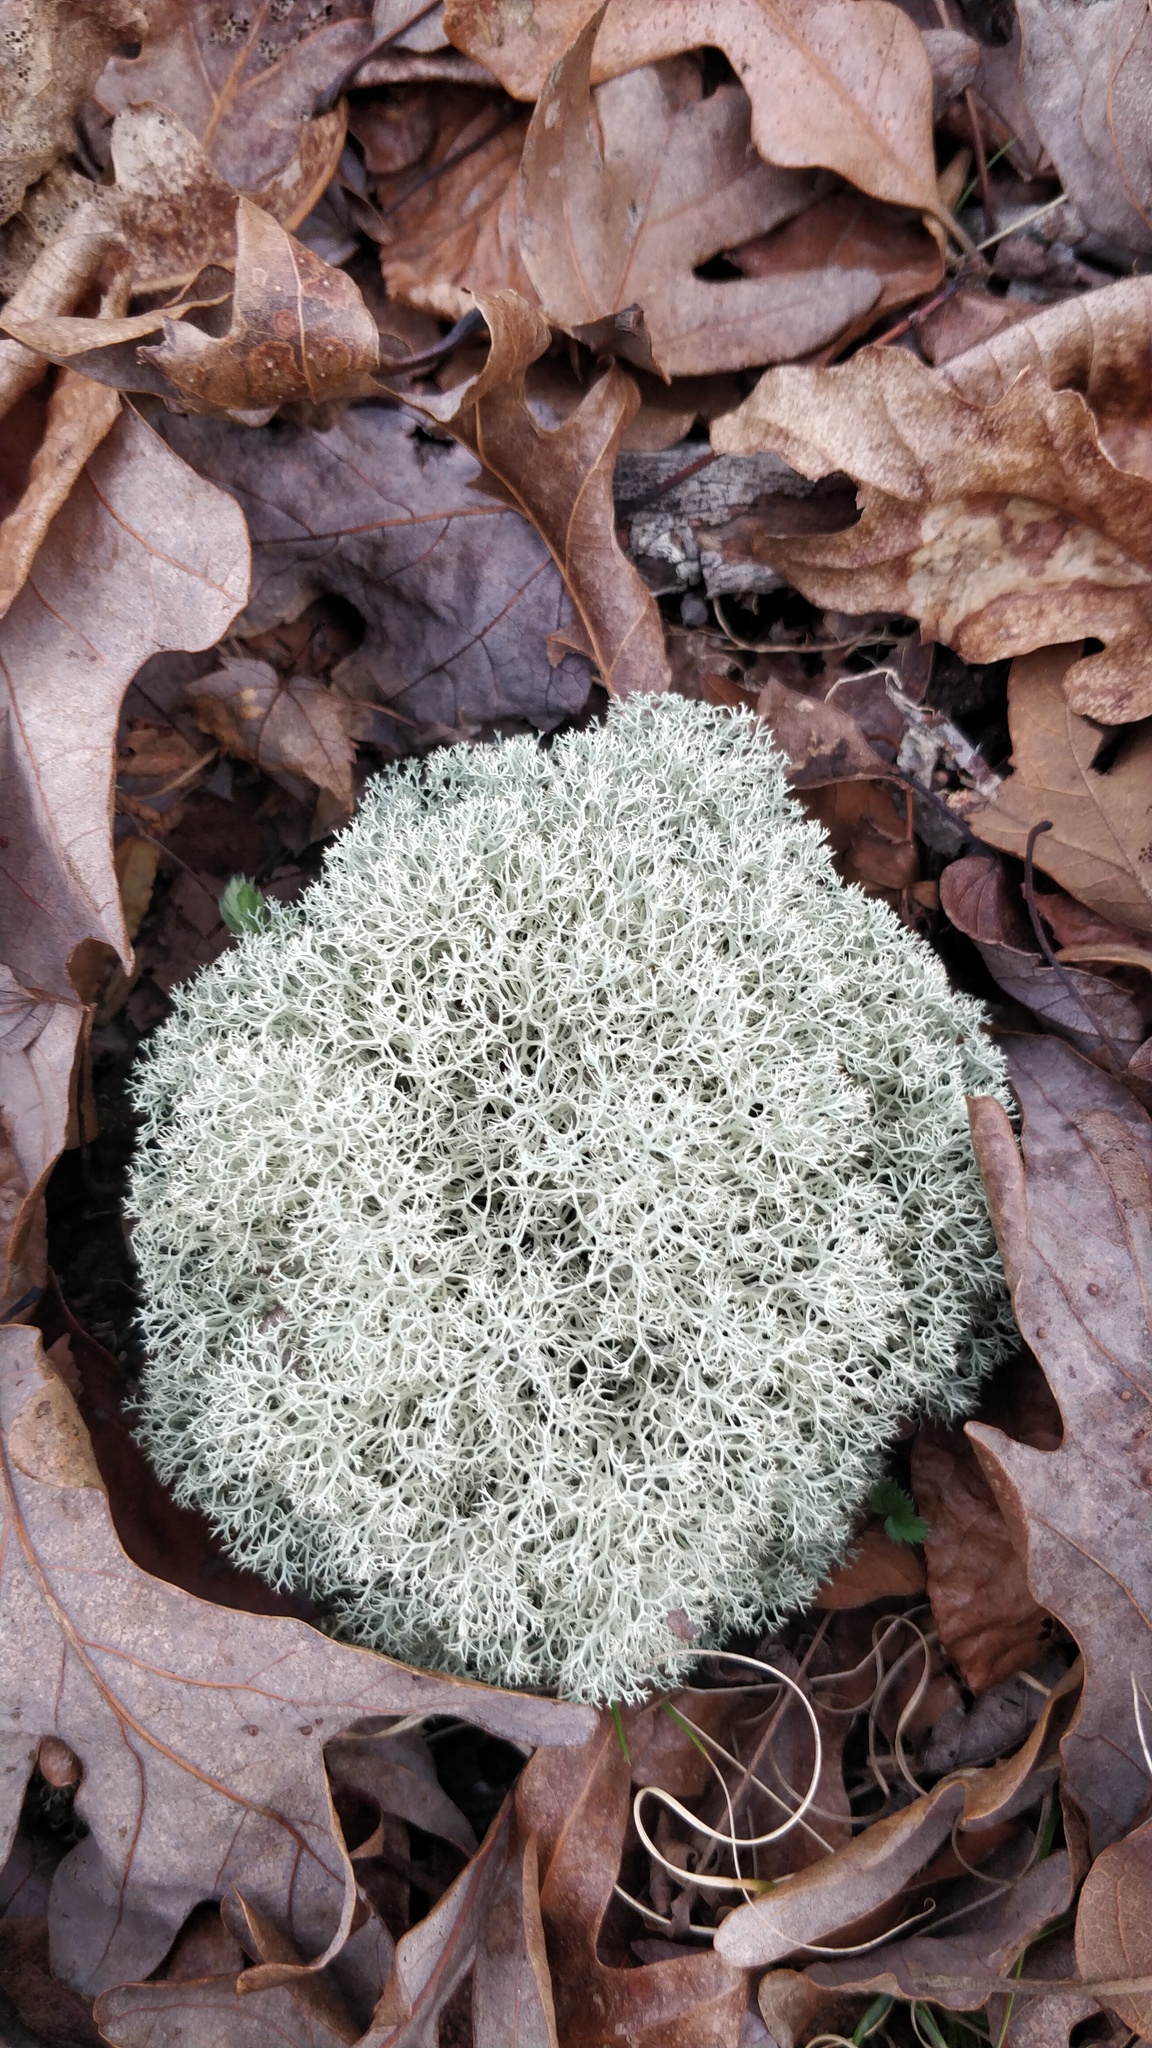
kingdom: Fungi
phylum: Ascomycota
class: Lecanoromycetes
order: Lecanorales
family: Cladoniaceae
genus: Cladonia
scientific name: Cladonia evansii
